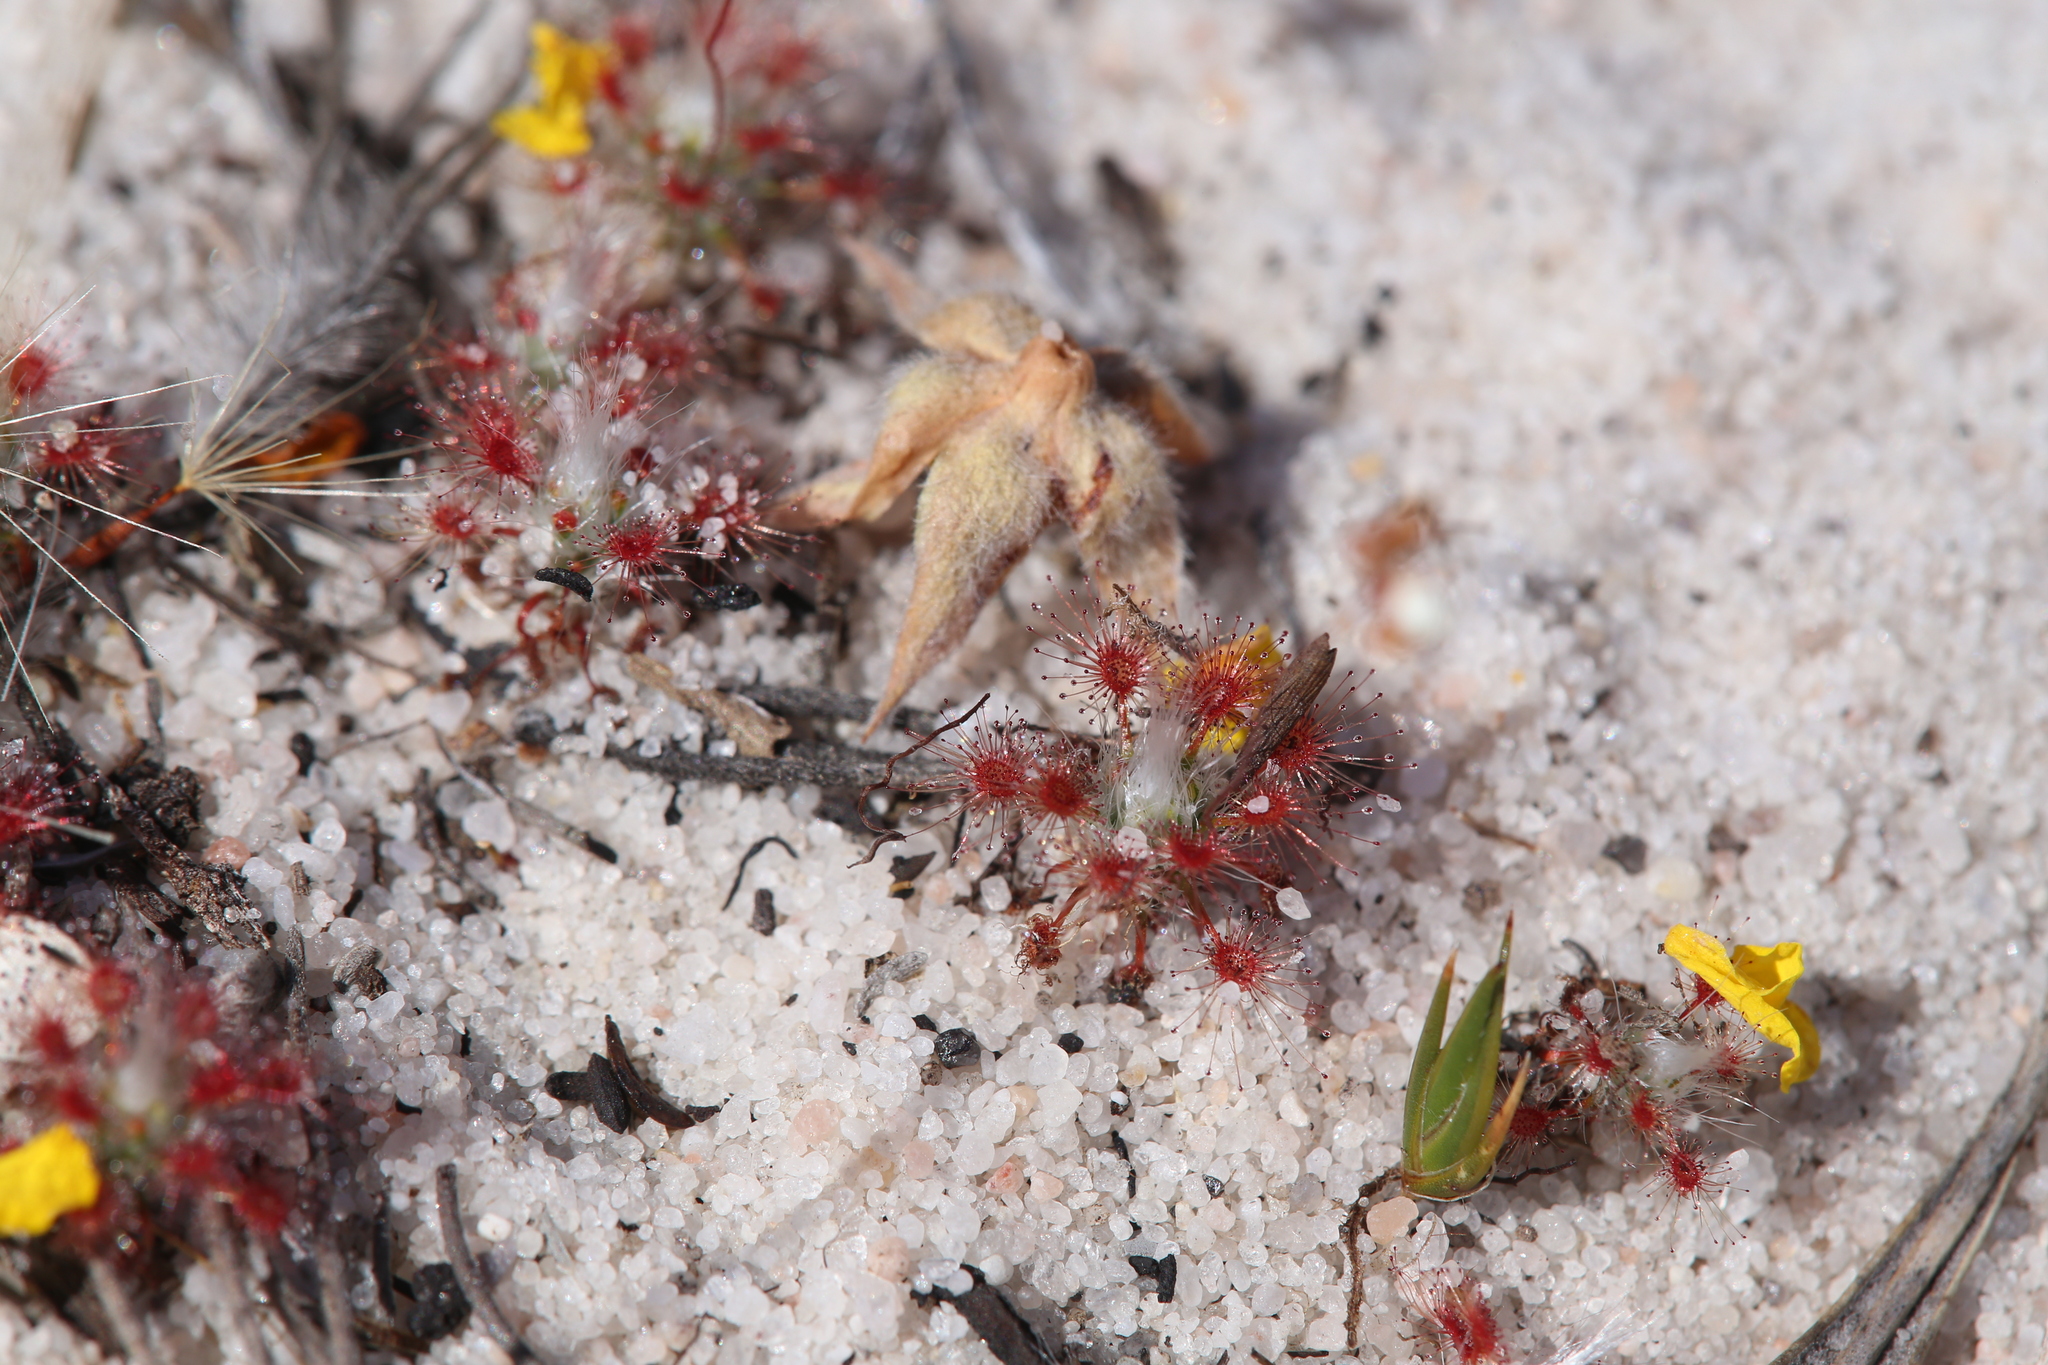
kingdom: Plantae
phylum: Tracheophyta
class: Magnoliopsida
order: Caryophyllales
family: Droseraceae
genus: Drosera
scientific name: Drosera paleacea
